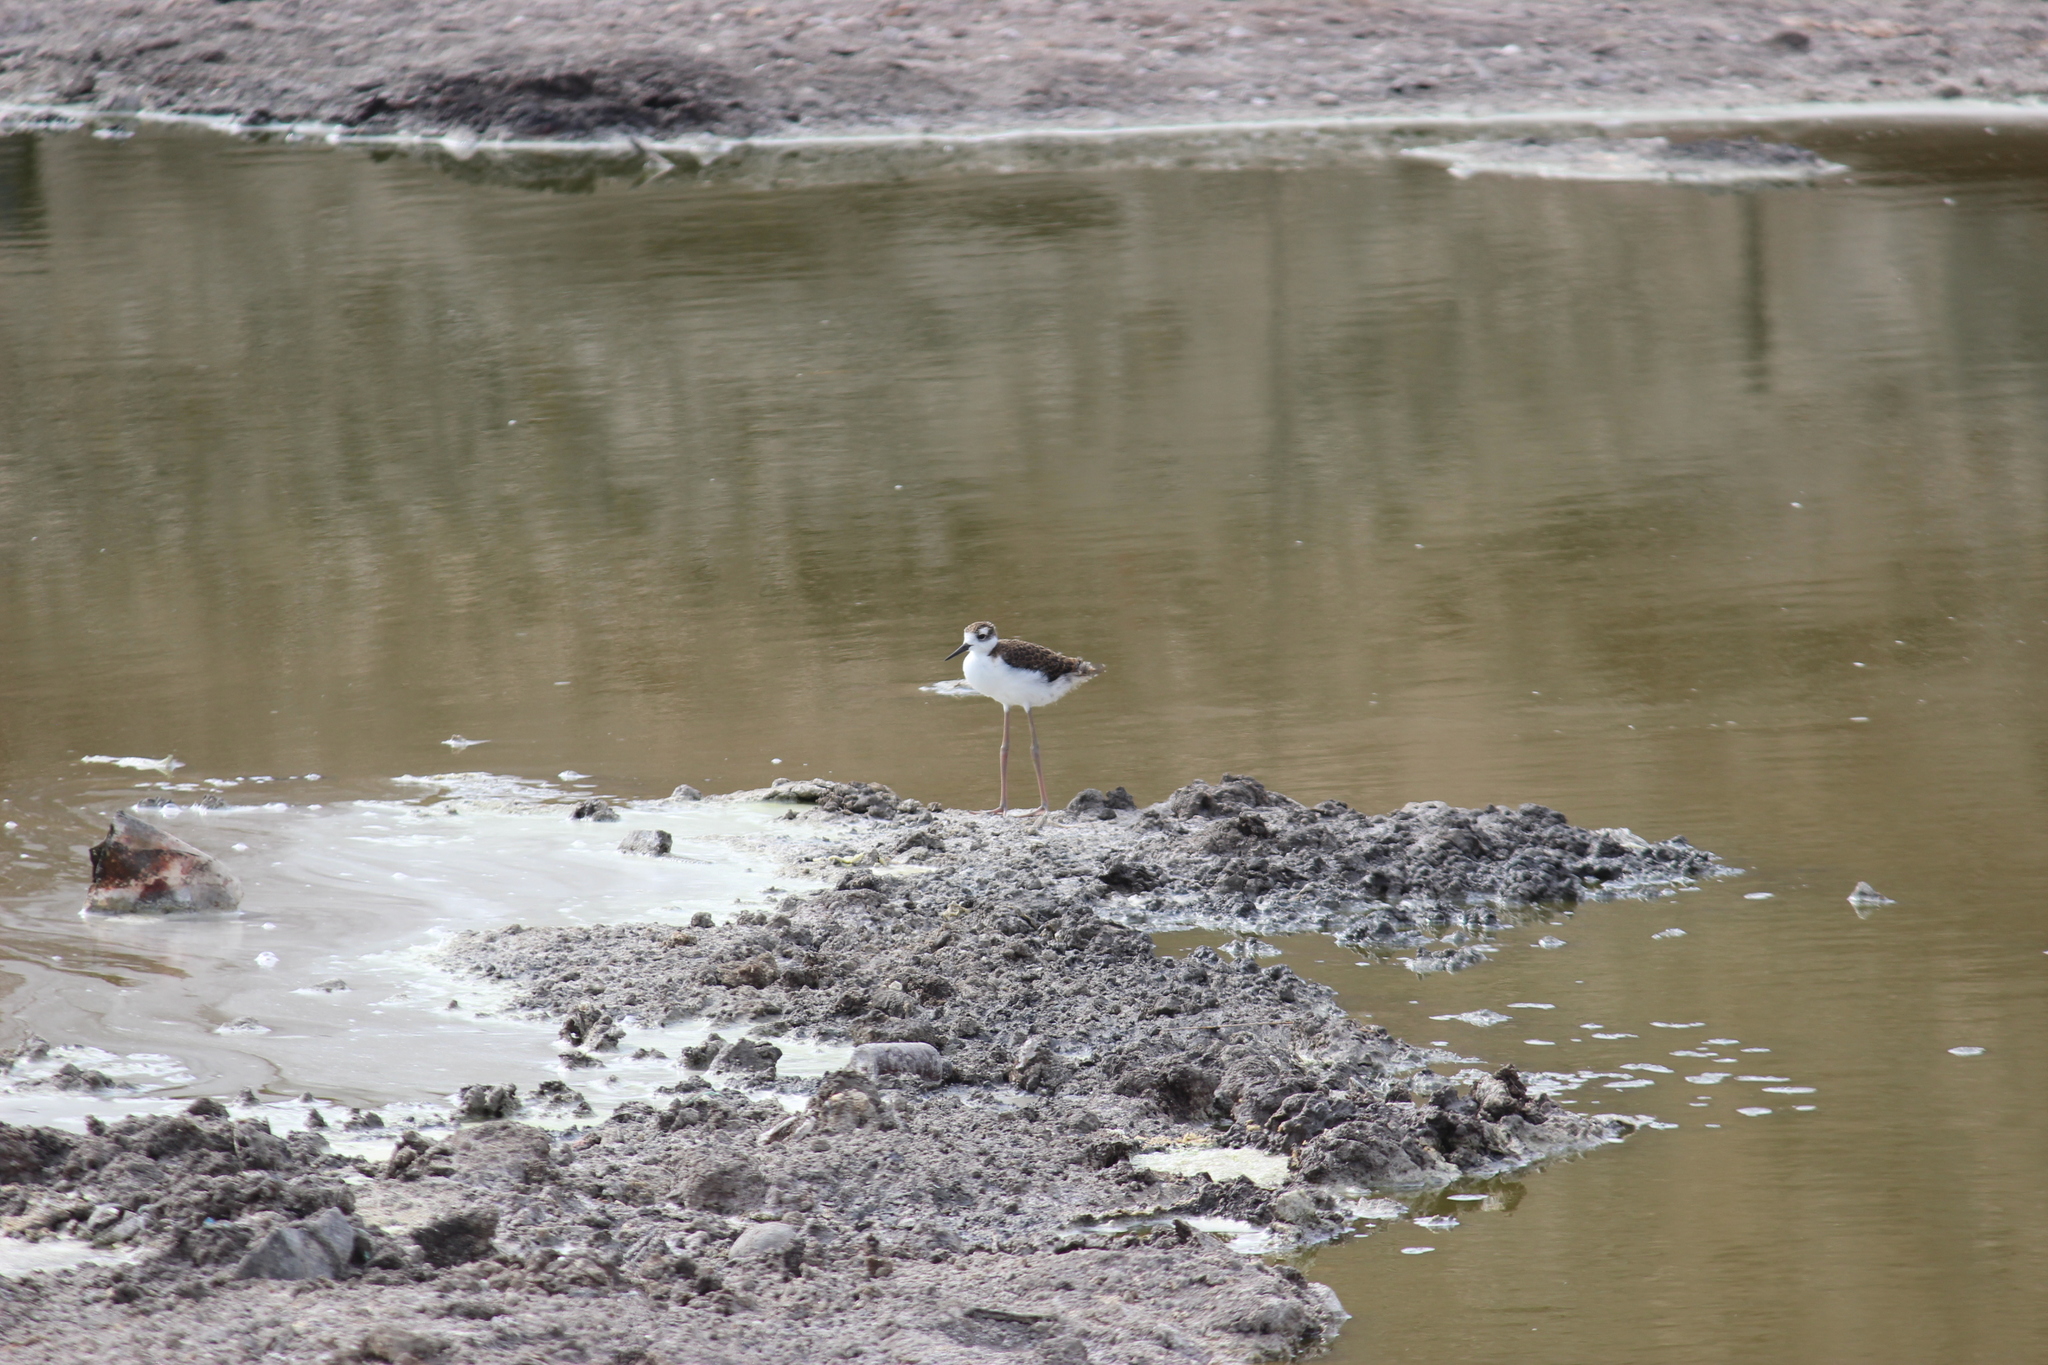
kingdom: Animalia
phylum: Chordata
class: Aves
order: Charadriiformes
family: Recurvirostridae
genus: Himantopus
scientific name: Himantopus mexicanus
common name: Black-necked stilt
